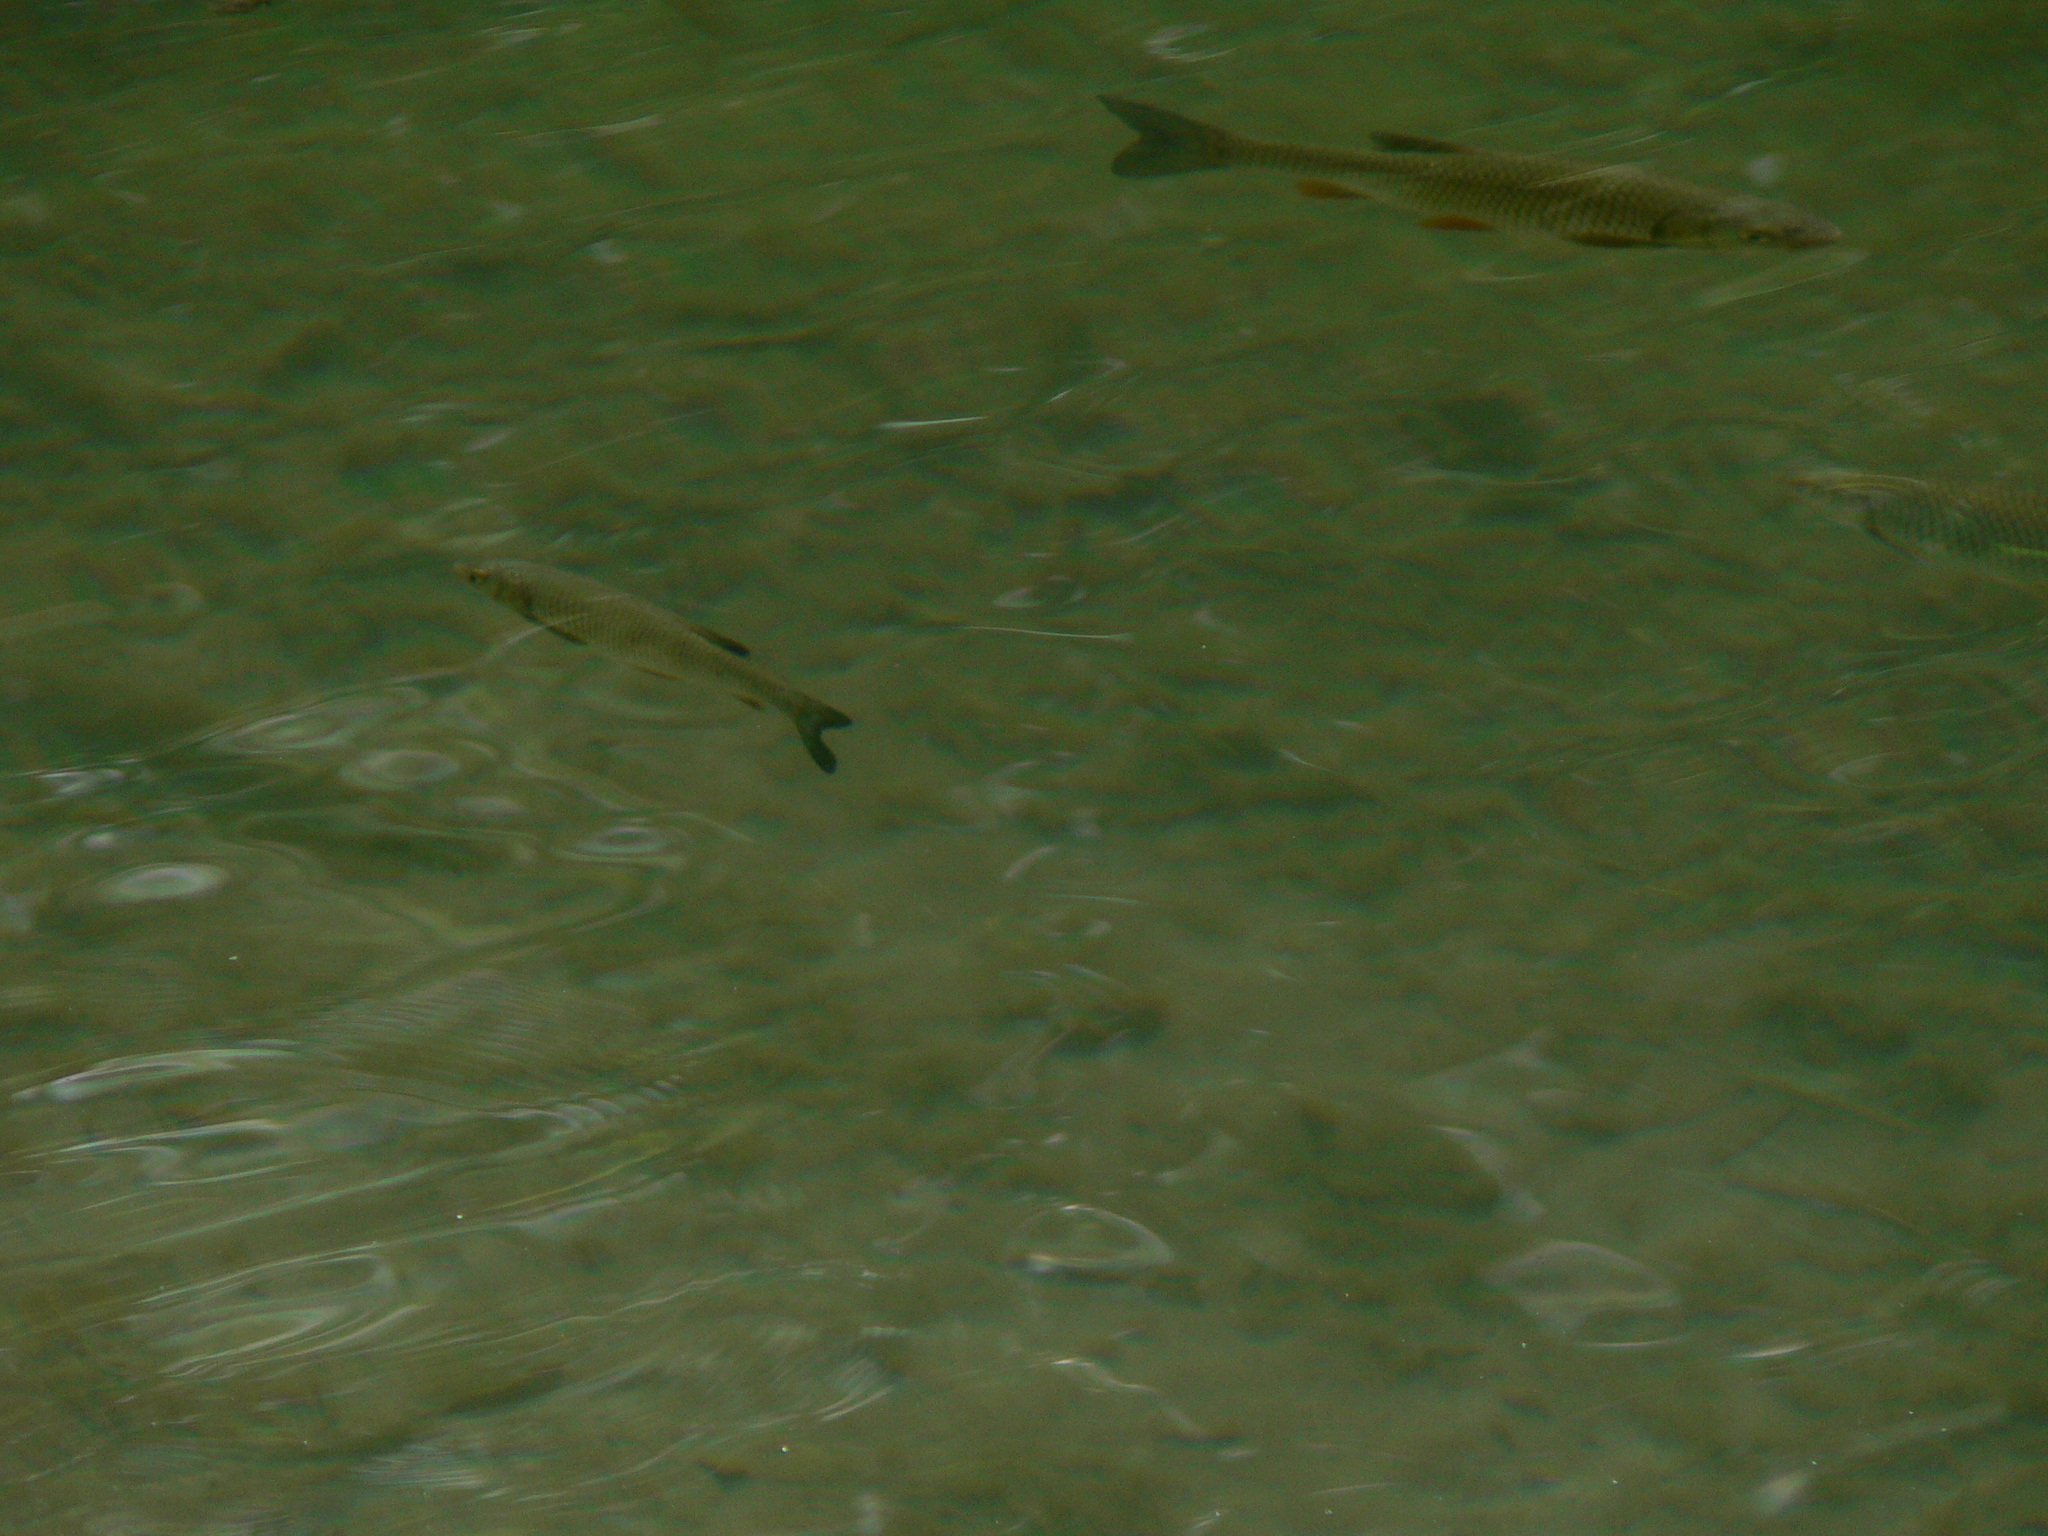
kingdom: Animalia
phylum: Chordata
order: Cypriniformes
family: Cyprinidae
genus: Squalius
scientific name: Squalius cephalus
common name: Chub
